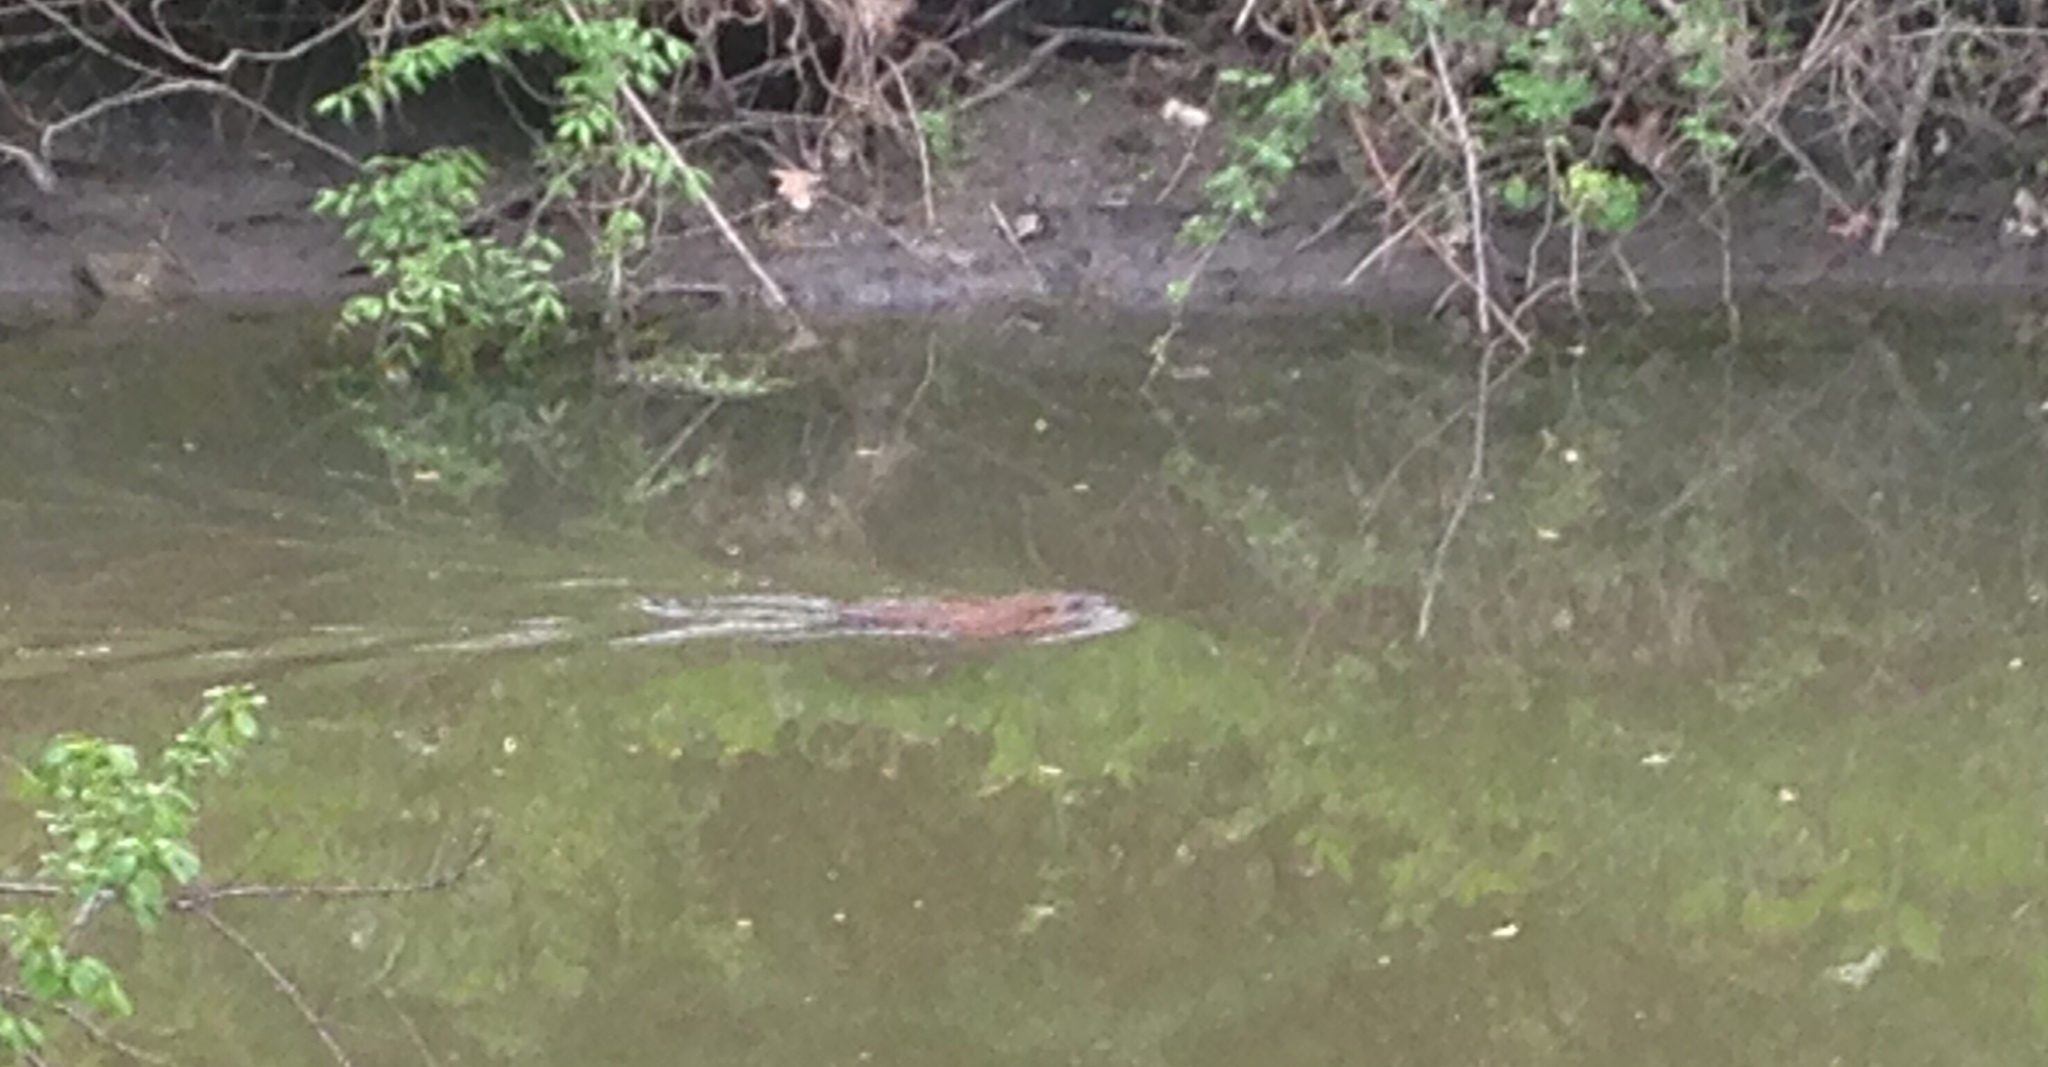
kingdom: Animalia
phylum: Chordata
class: Mammalia
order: Rodentia
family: Cricetidae
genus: Ondatra
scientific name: Ondatra zibethicus
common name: Muskrat
